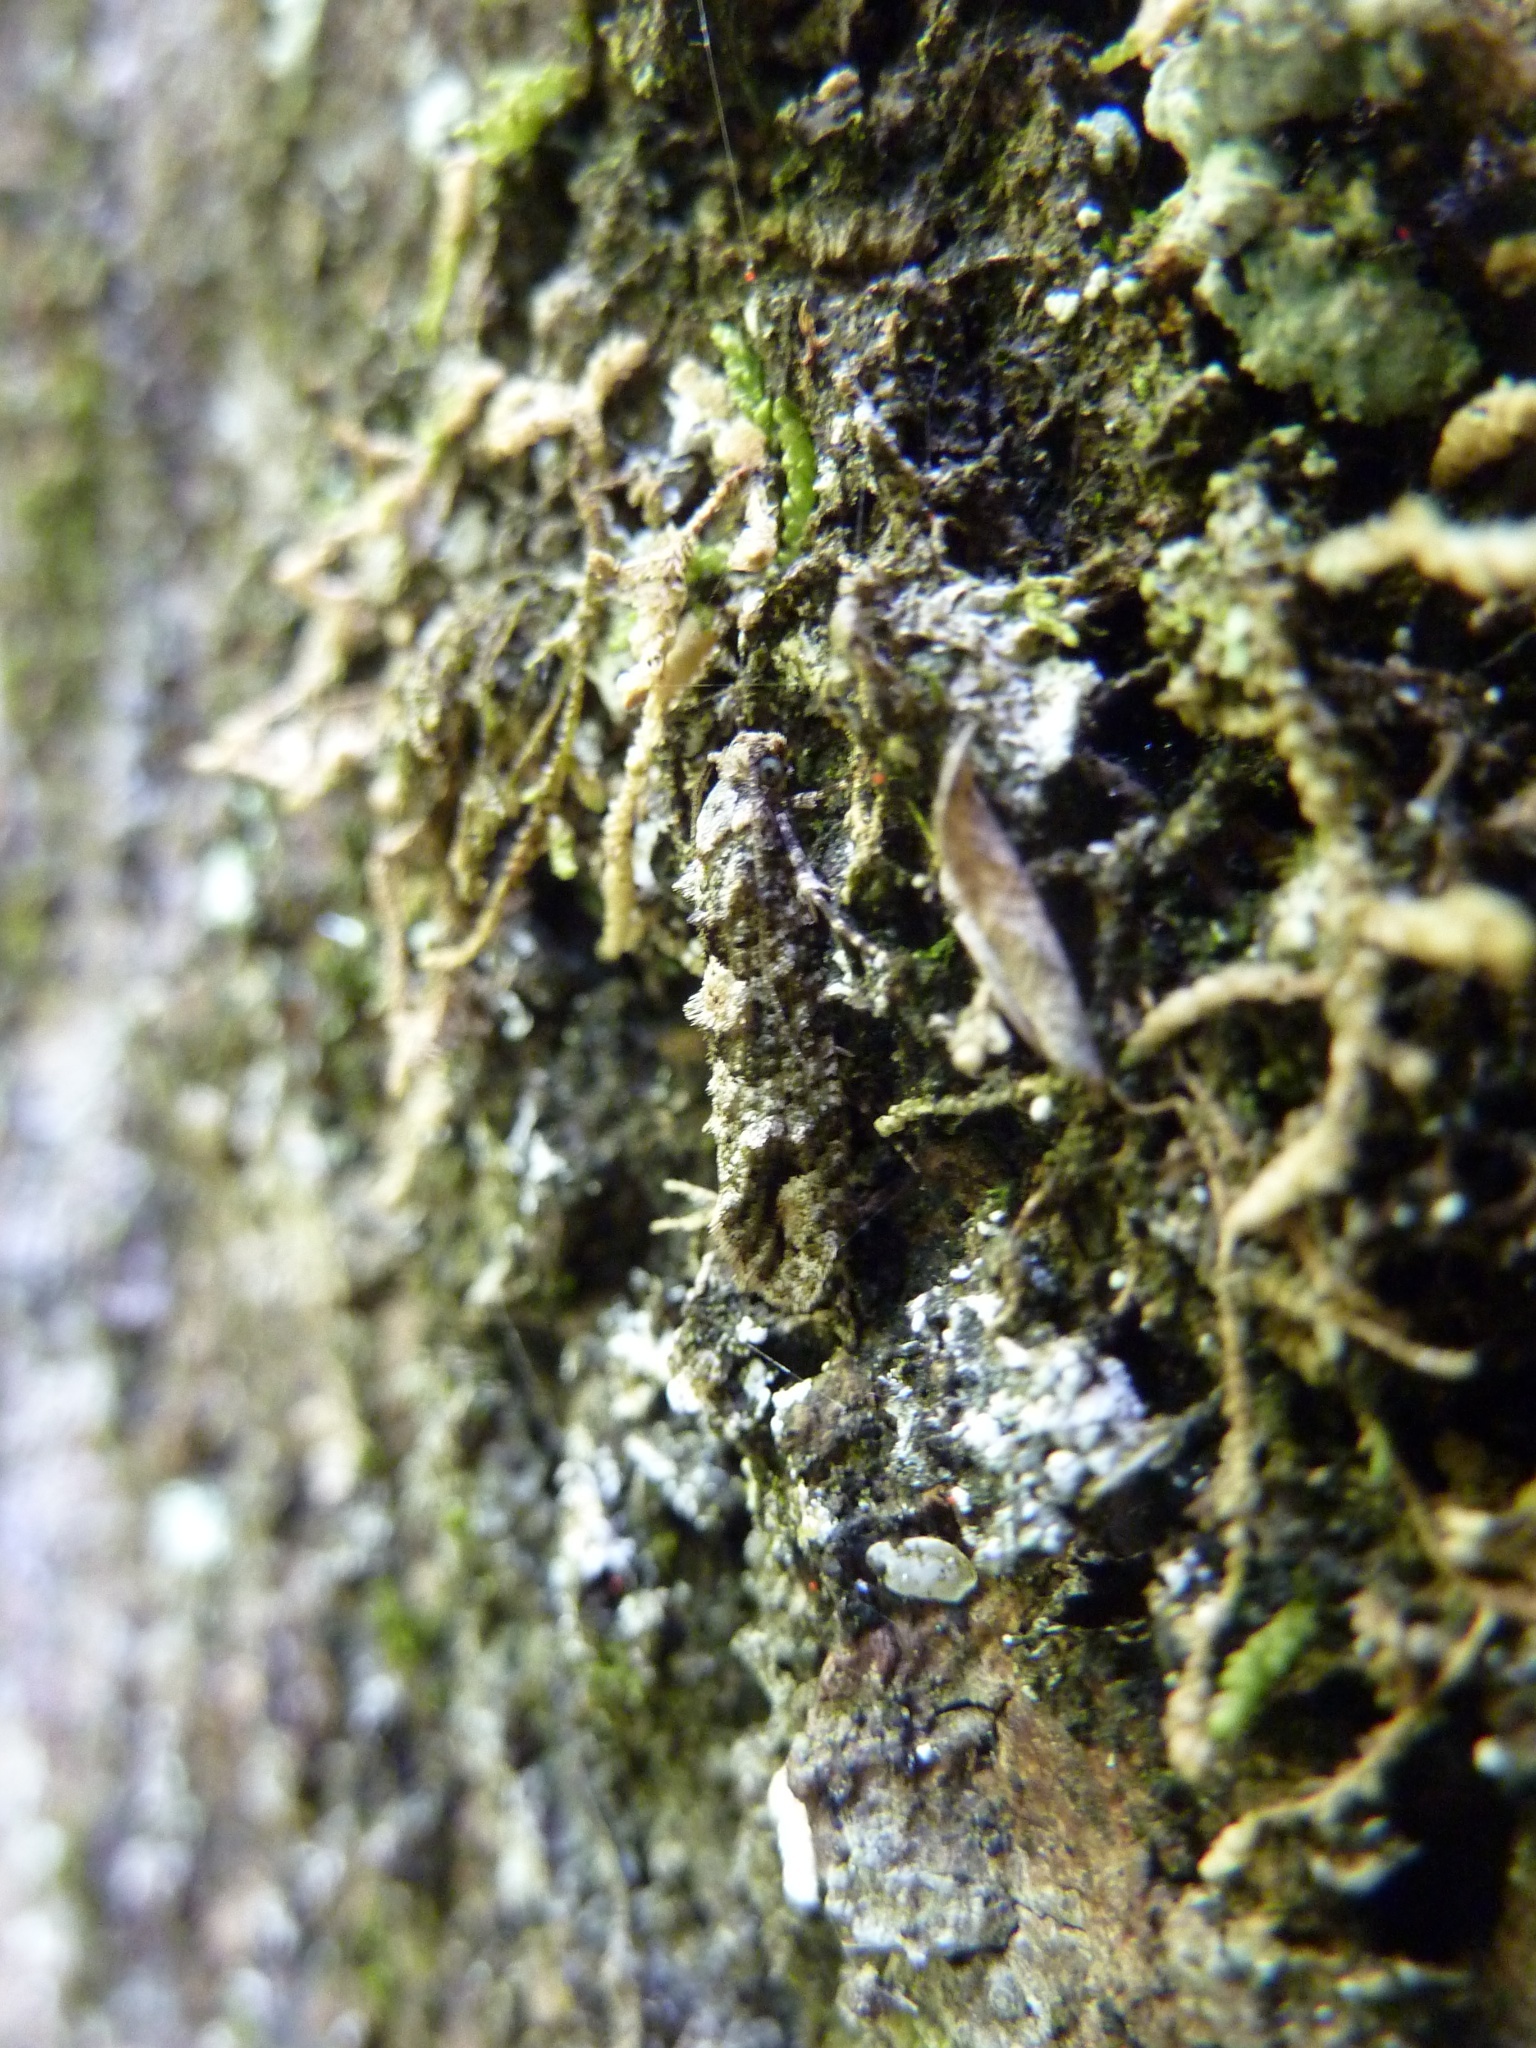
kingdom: Animalia
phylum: Arthropoda
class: Insecta
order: Lepidoptera
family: Tineidae
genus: Lysiphragma
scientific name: Lysiphragma howesii
